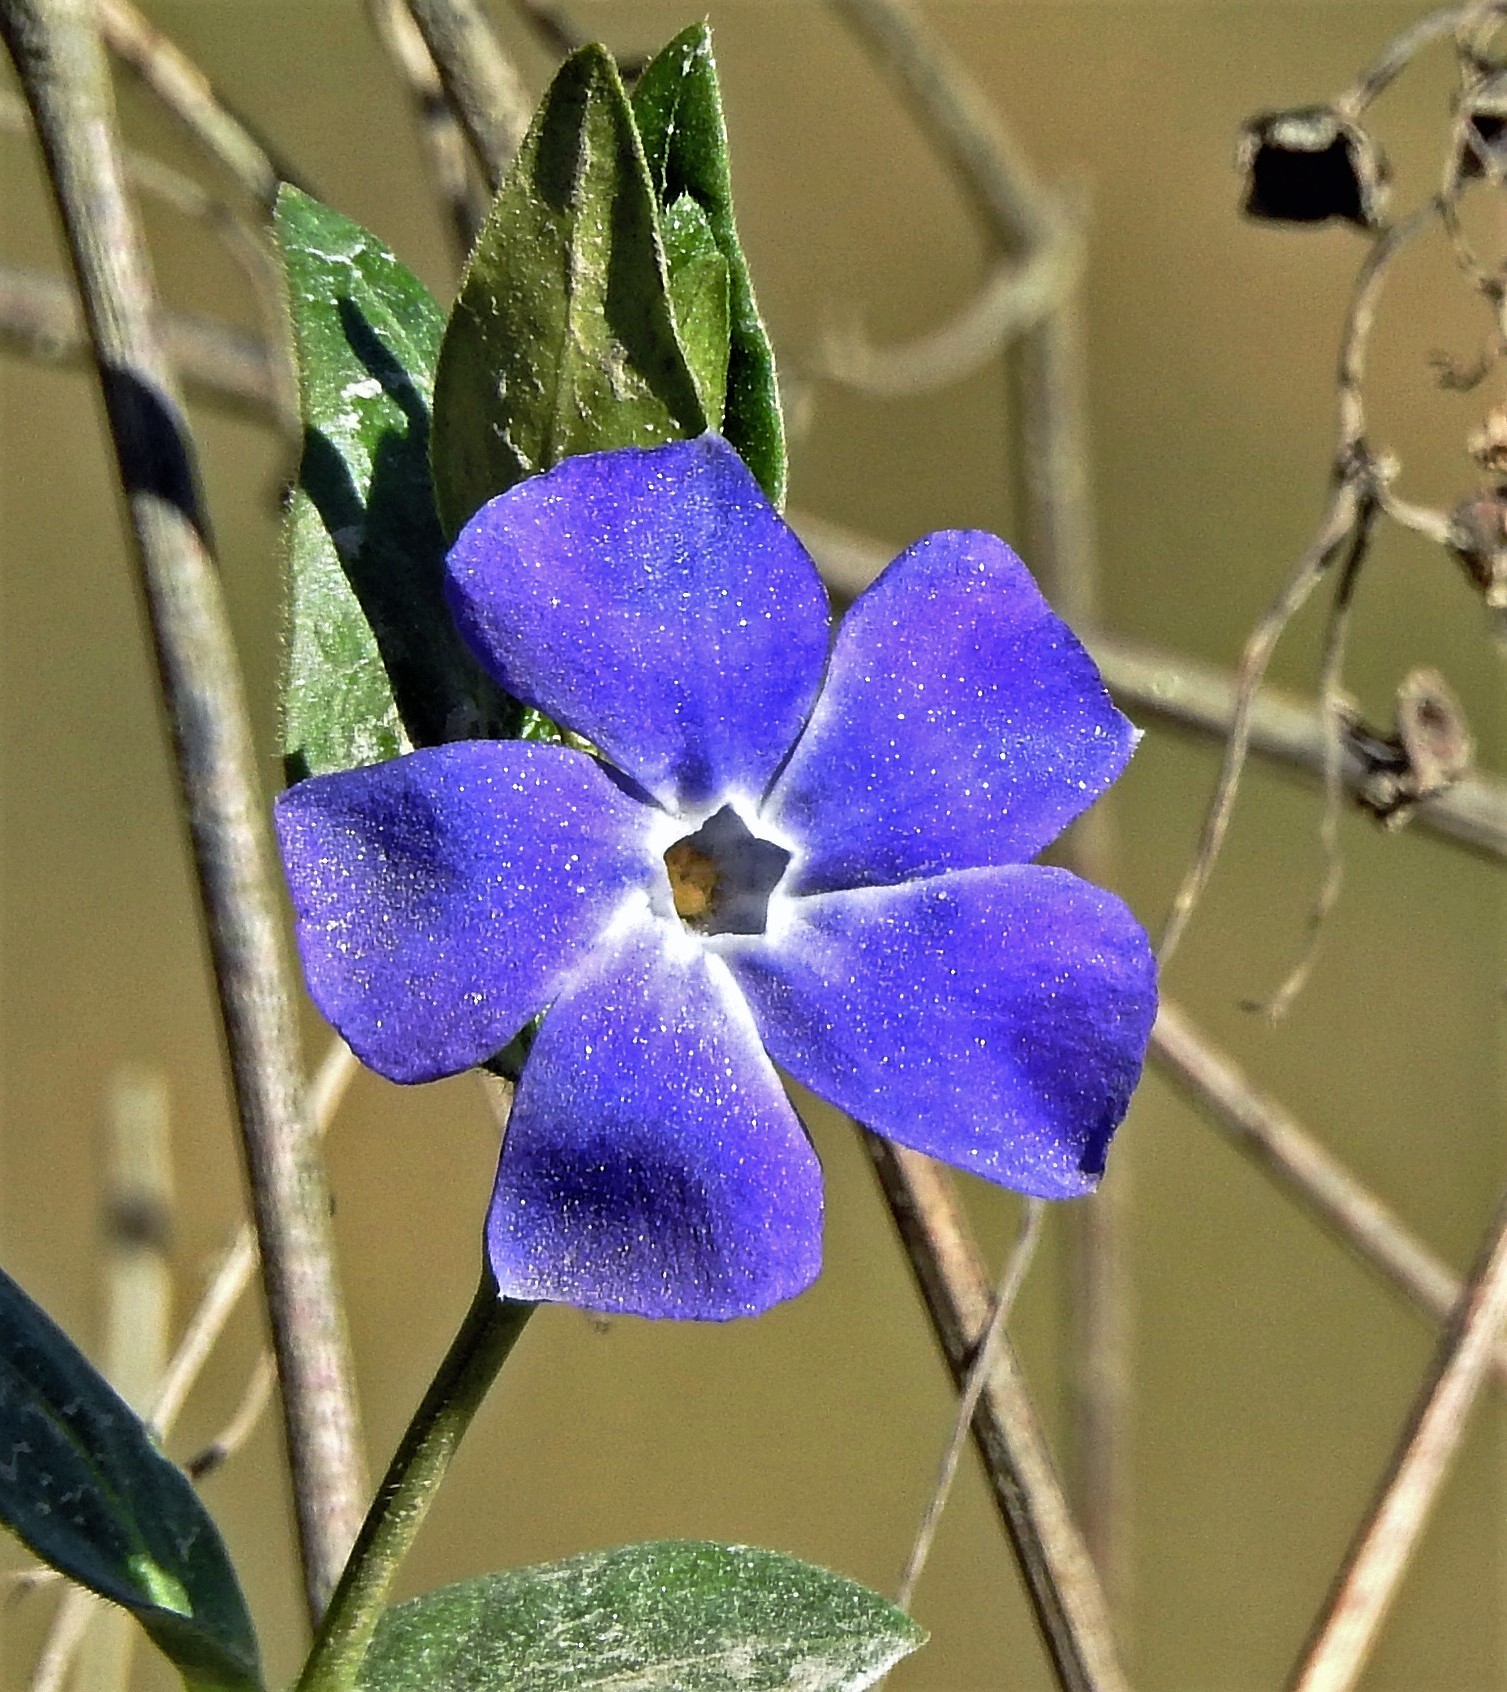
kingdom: Plantae
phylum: Tracheophyta
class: Magnoliopsida
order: Gentianales
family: Apocynaceae
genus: Vinca
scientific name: Vinca major
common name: Greater periwinkle
